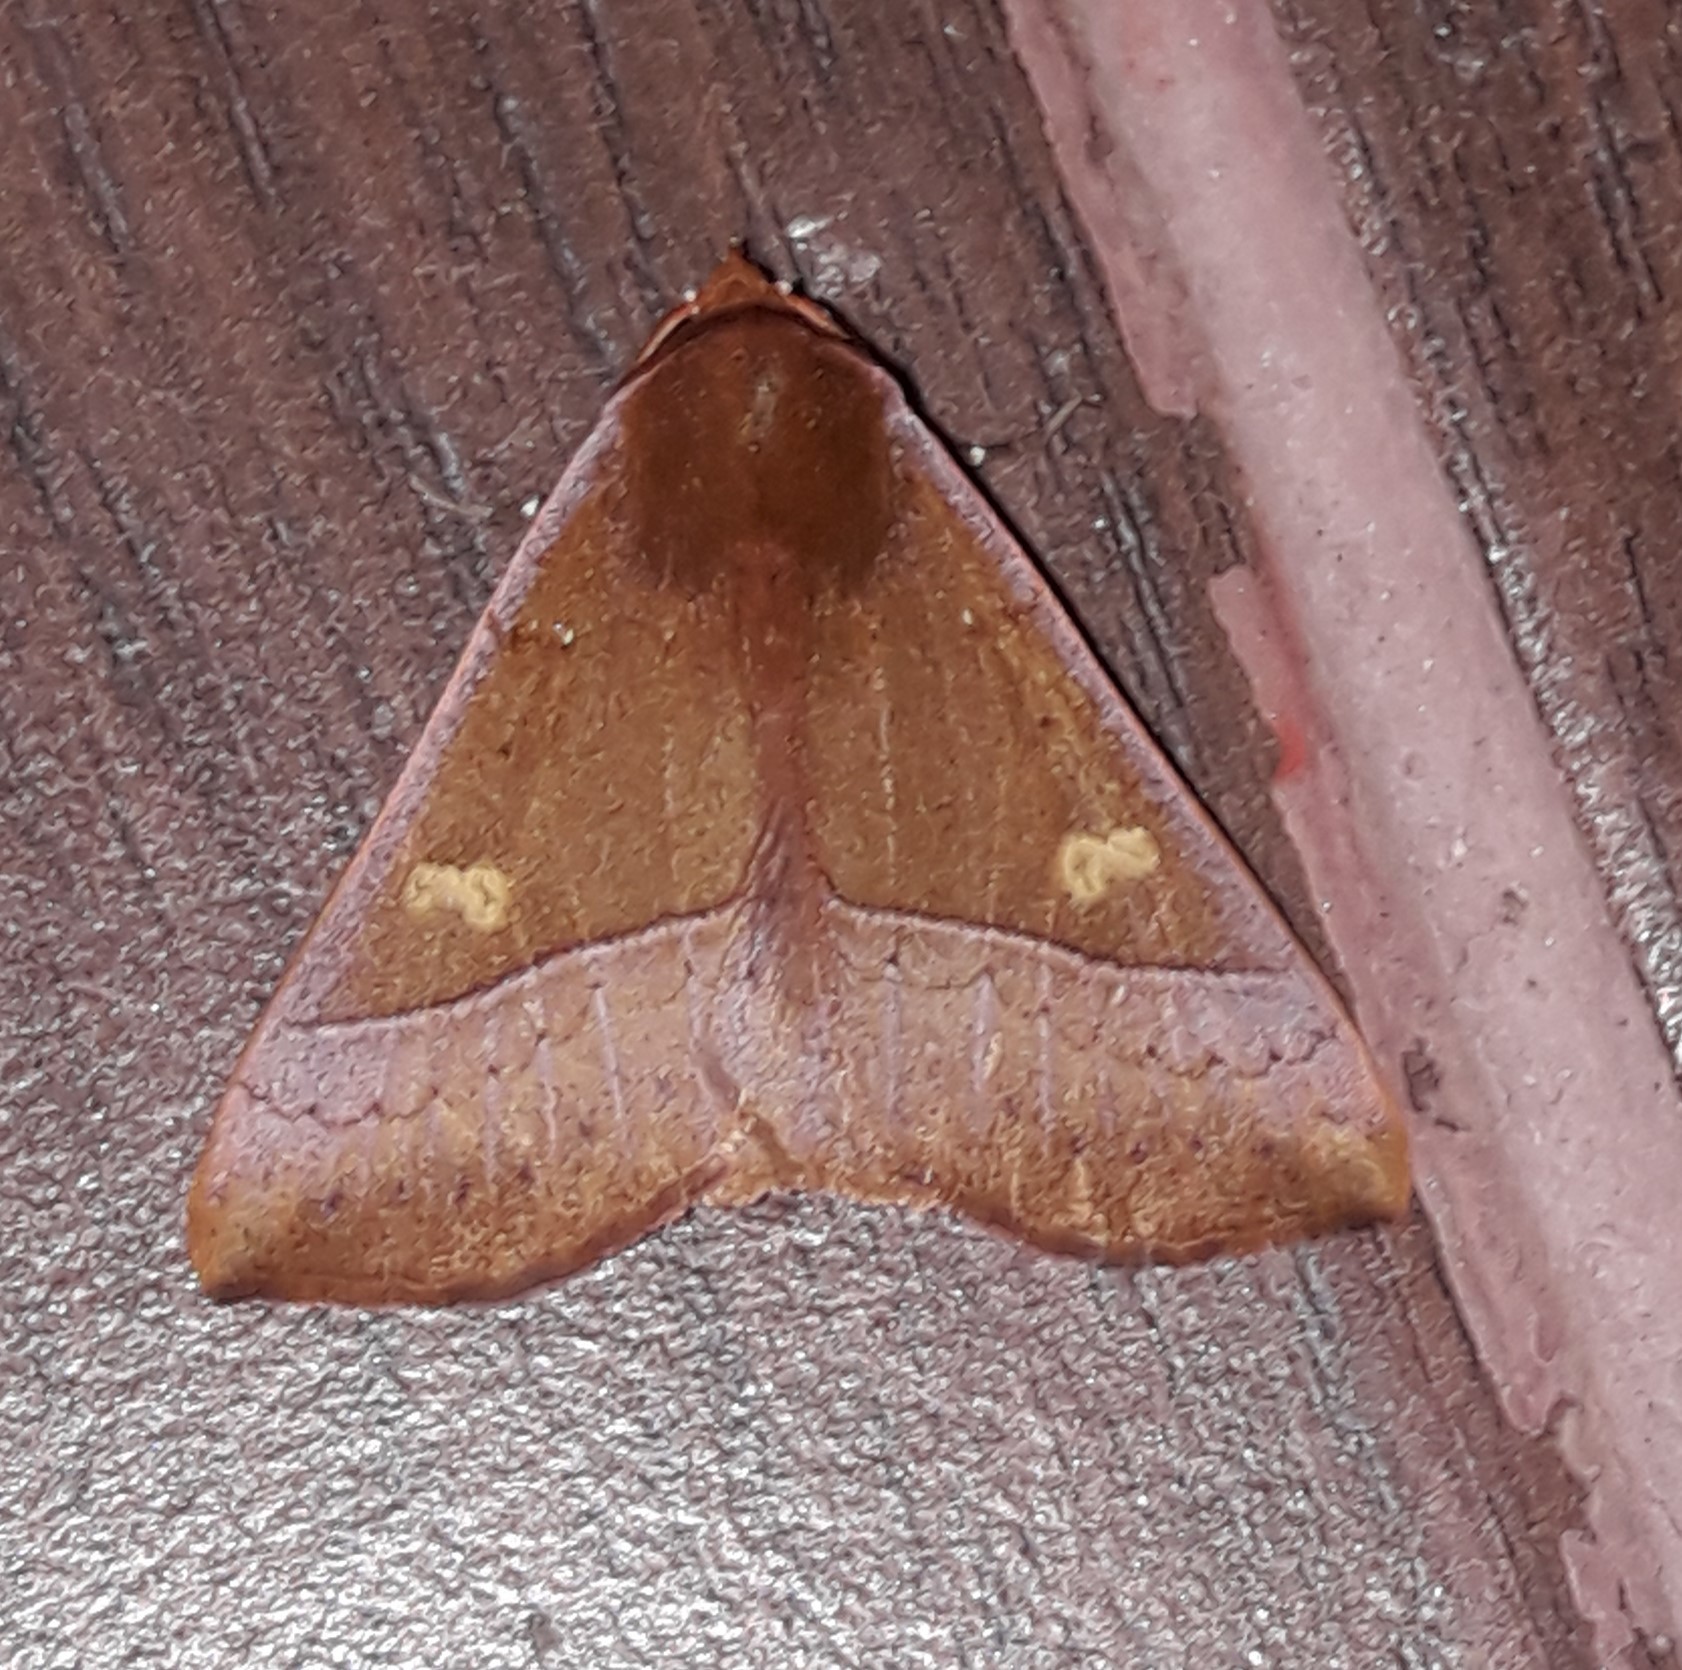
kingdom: Animalia
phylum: Arthropoda
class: Insecta
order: Lepidoptera
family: Erebidae
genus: Obroatis
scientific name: Obroatis vinea
